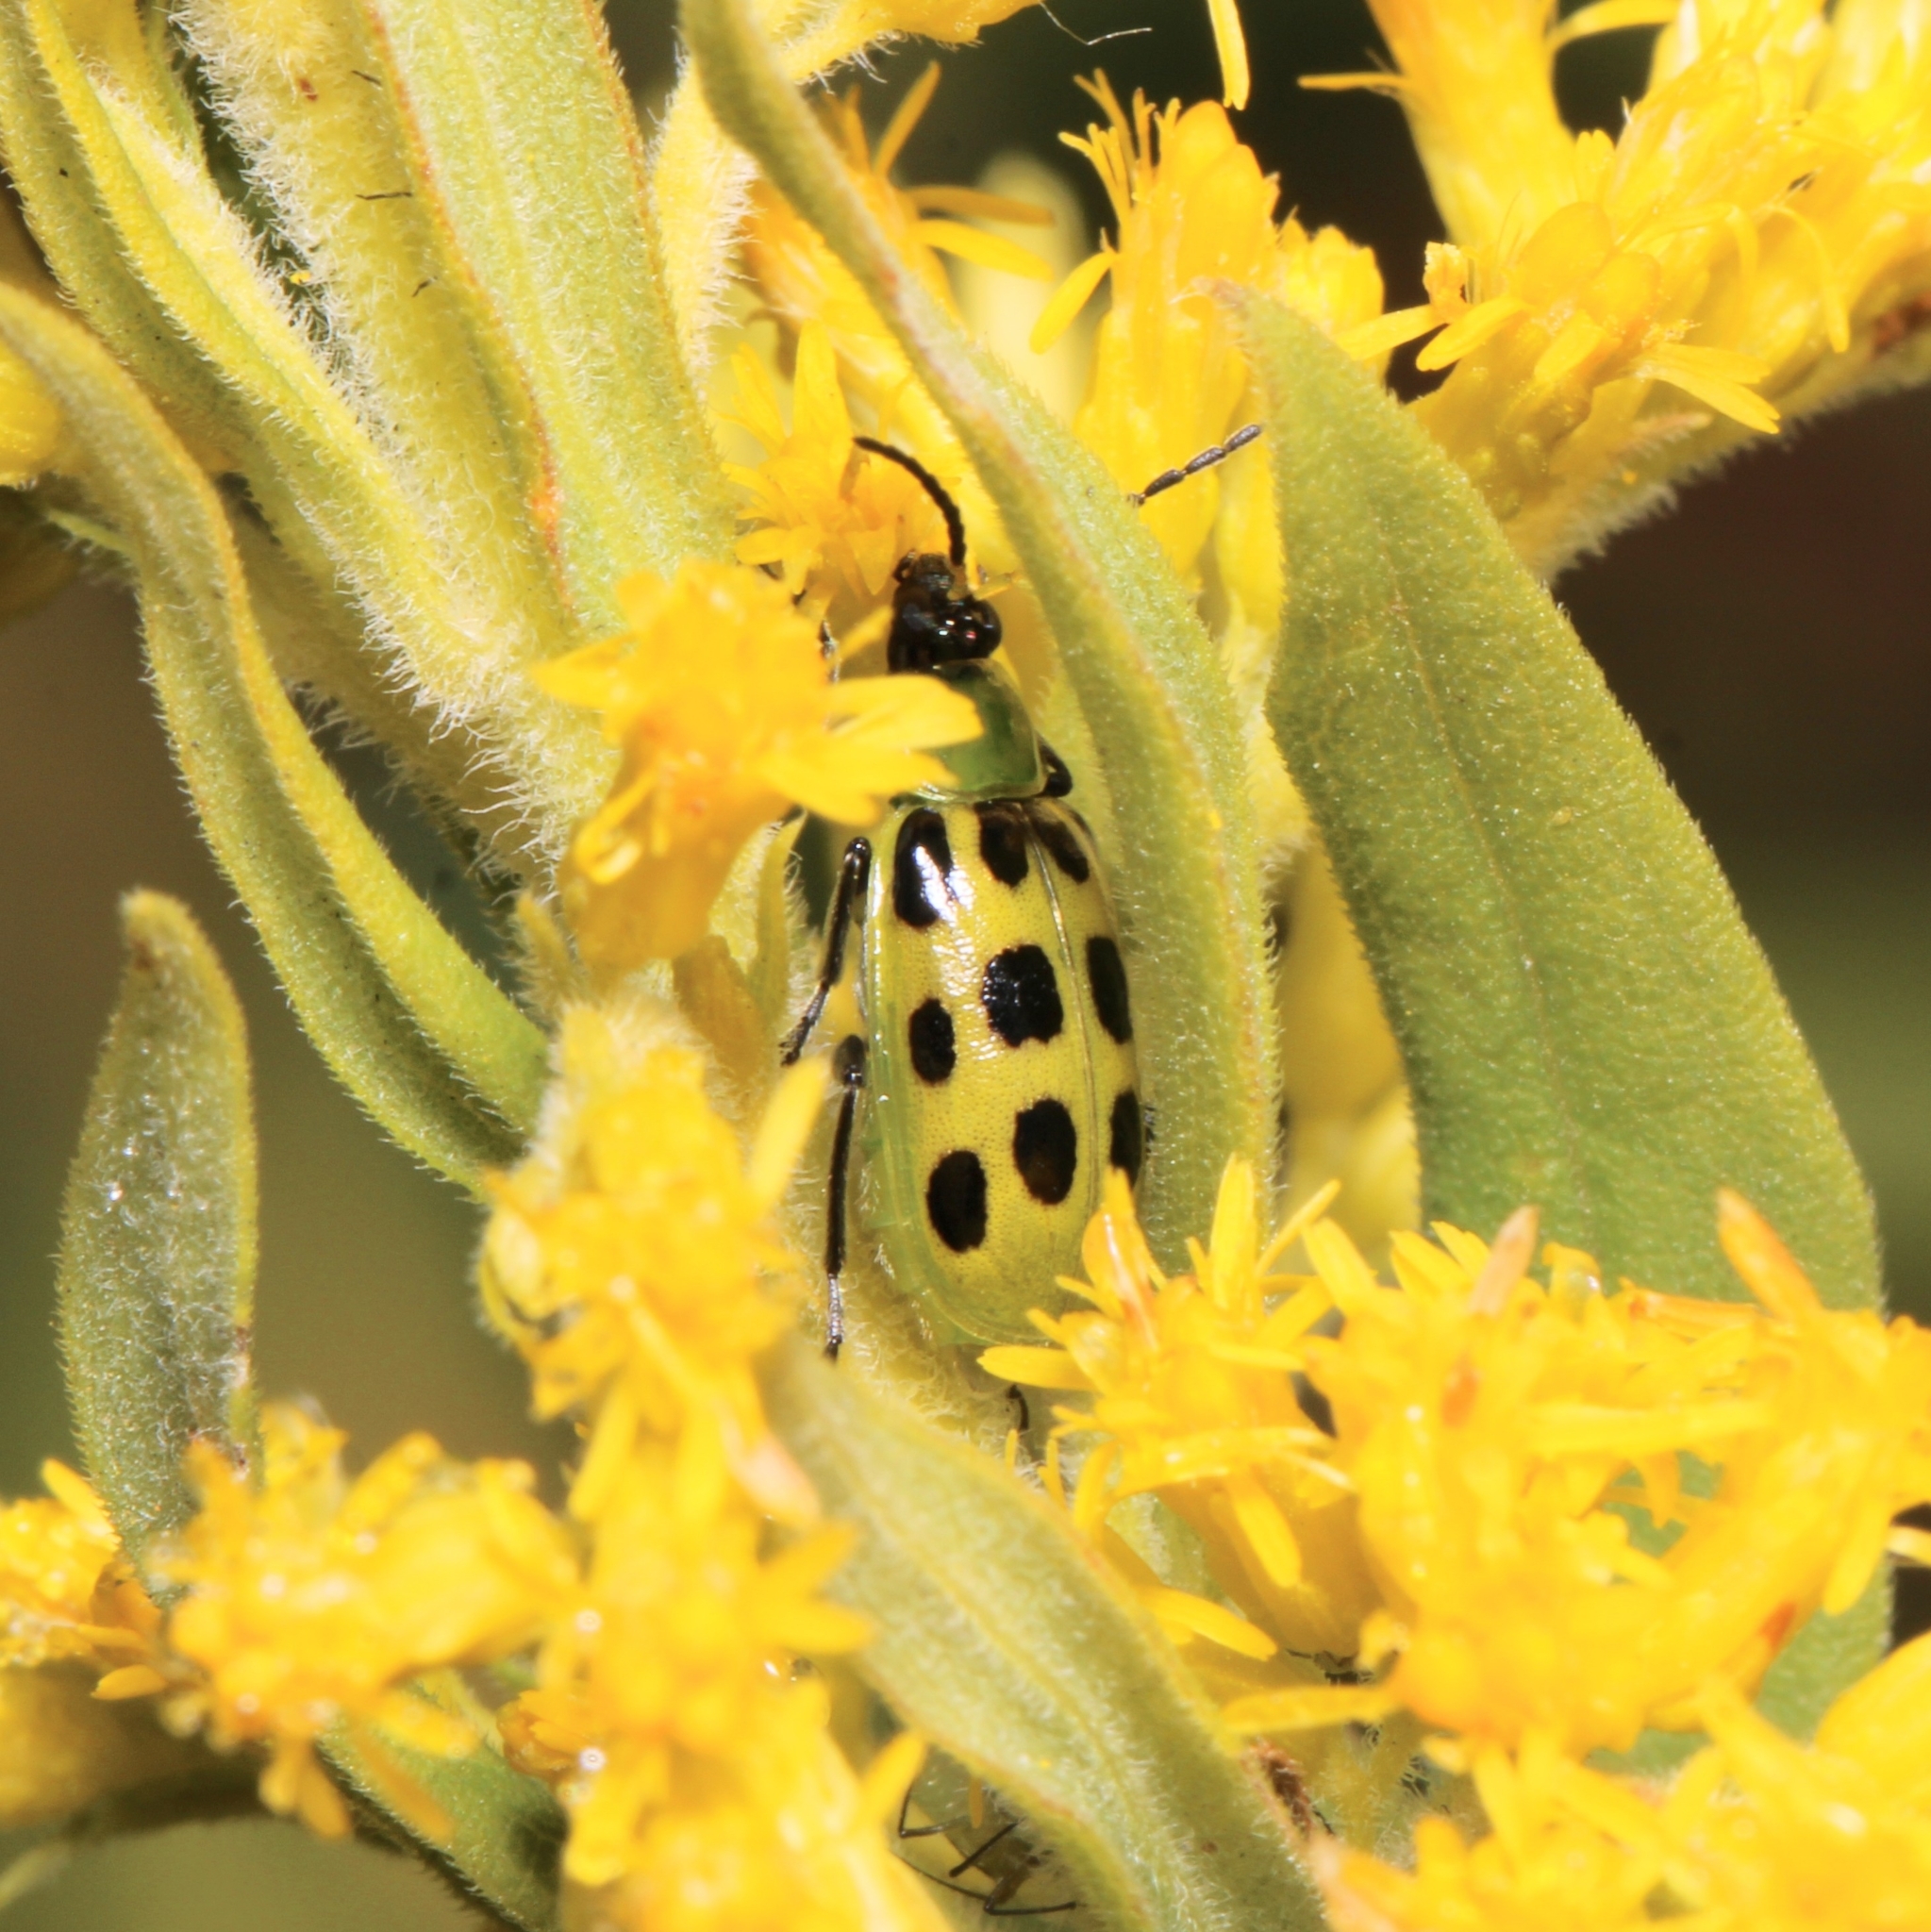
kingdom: Animalia
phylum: Arthropoda
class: Insecta
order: Coleoptera
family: Chrysomelidae
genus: Diabrotica
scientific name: Diabrotica undecimpunctata
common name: Spotted cucumber beetle
